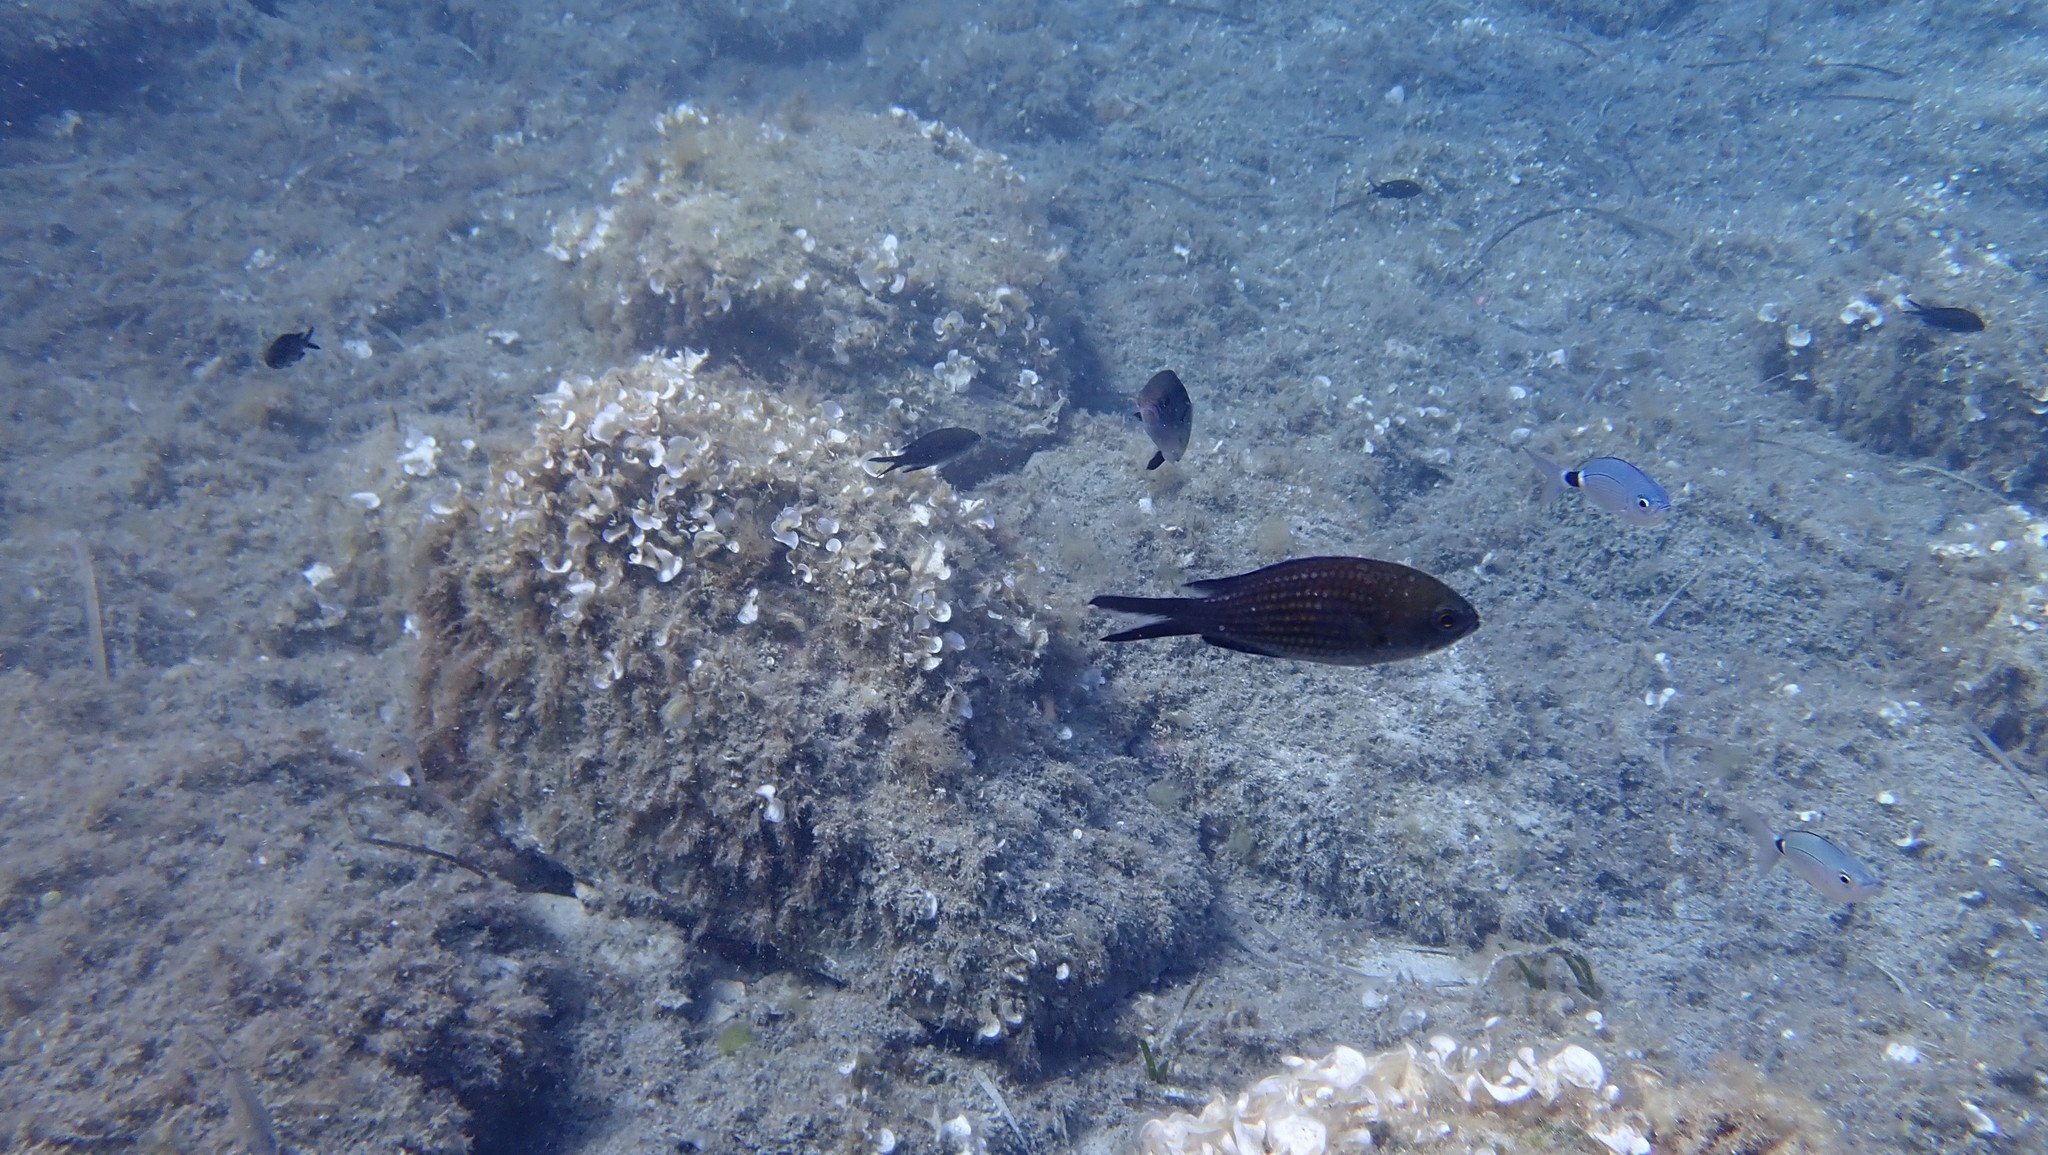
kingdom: Animalia
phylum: Chordata
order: Perciformes
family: Pomacentridae
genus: Chromis
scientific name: Chromis chromis
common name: Damselfish
